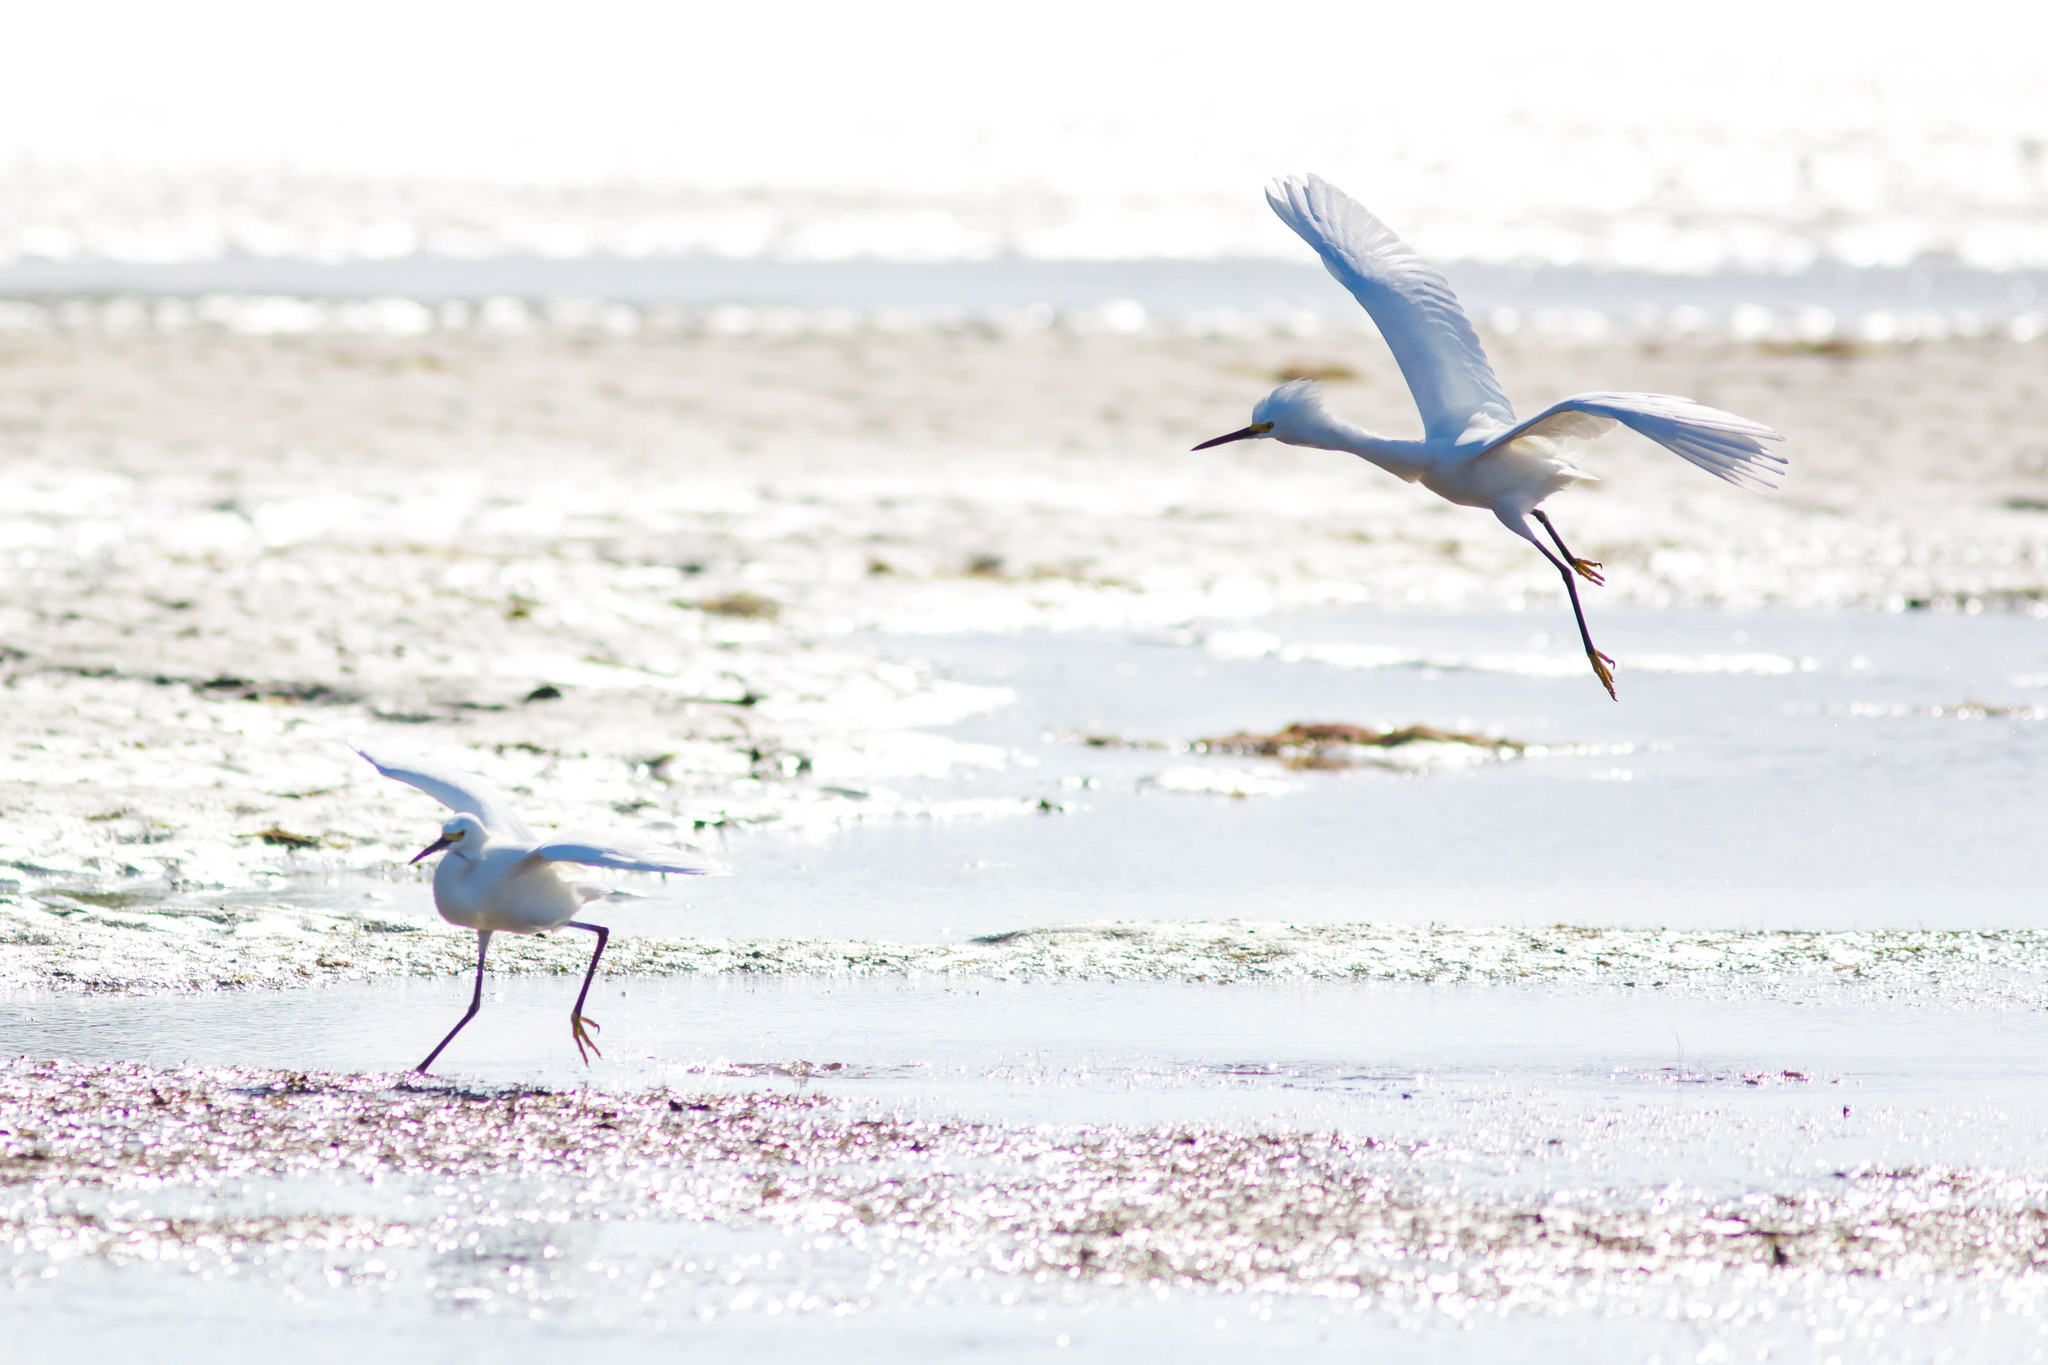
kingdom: Animalia
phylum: Chordata
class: Aves
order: Pelecaniformes
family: Ardeidae
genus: Egretta
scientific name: Egretta thula
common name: Snowy egret
